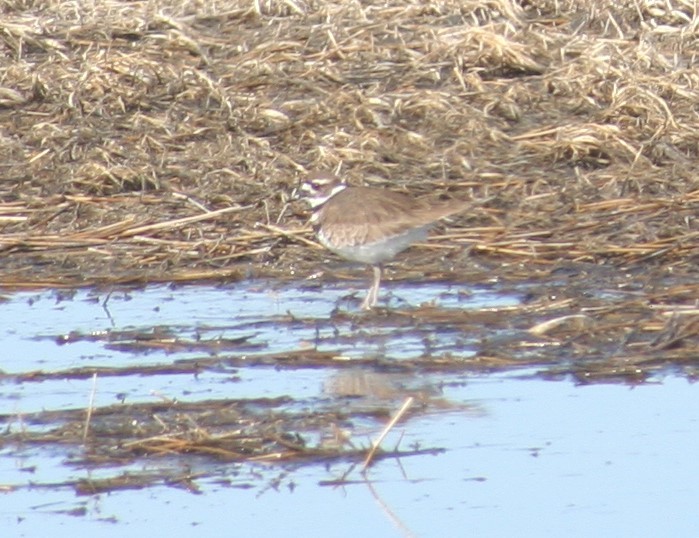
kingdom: Animalia
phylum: Chordata
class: Aves
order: Charadriiformes
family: Charadriidae
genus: Charadrius
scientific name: Charadrius vociferus
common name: Killdeer
